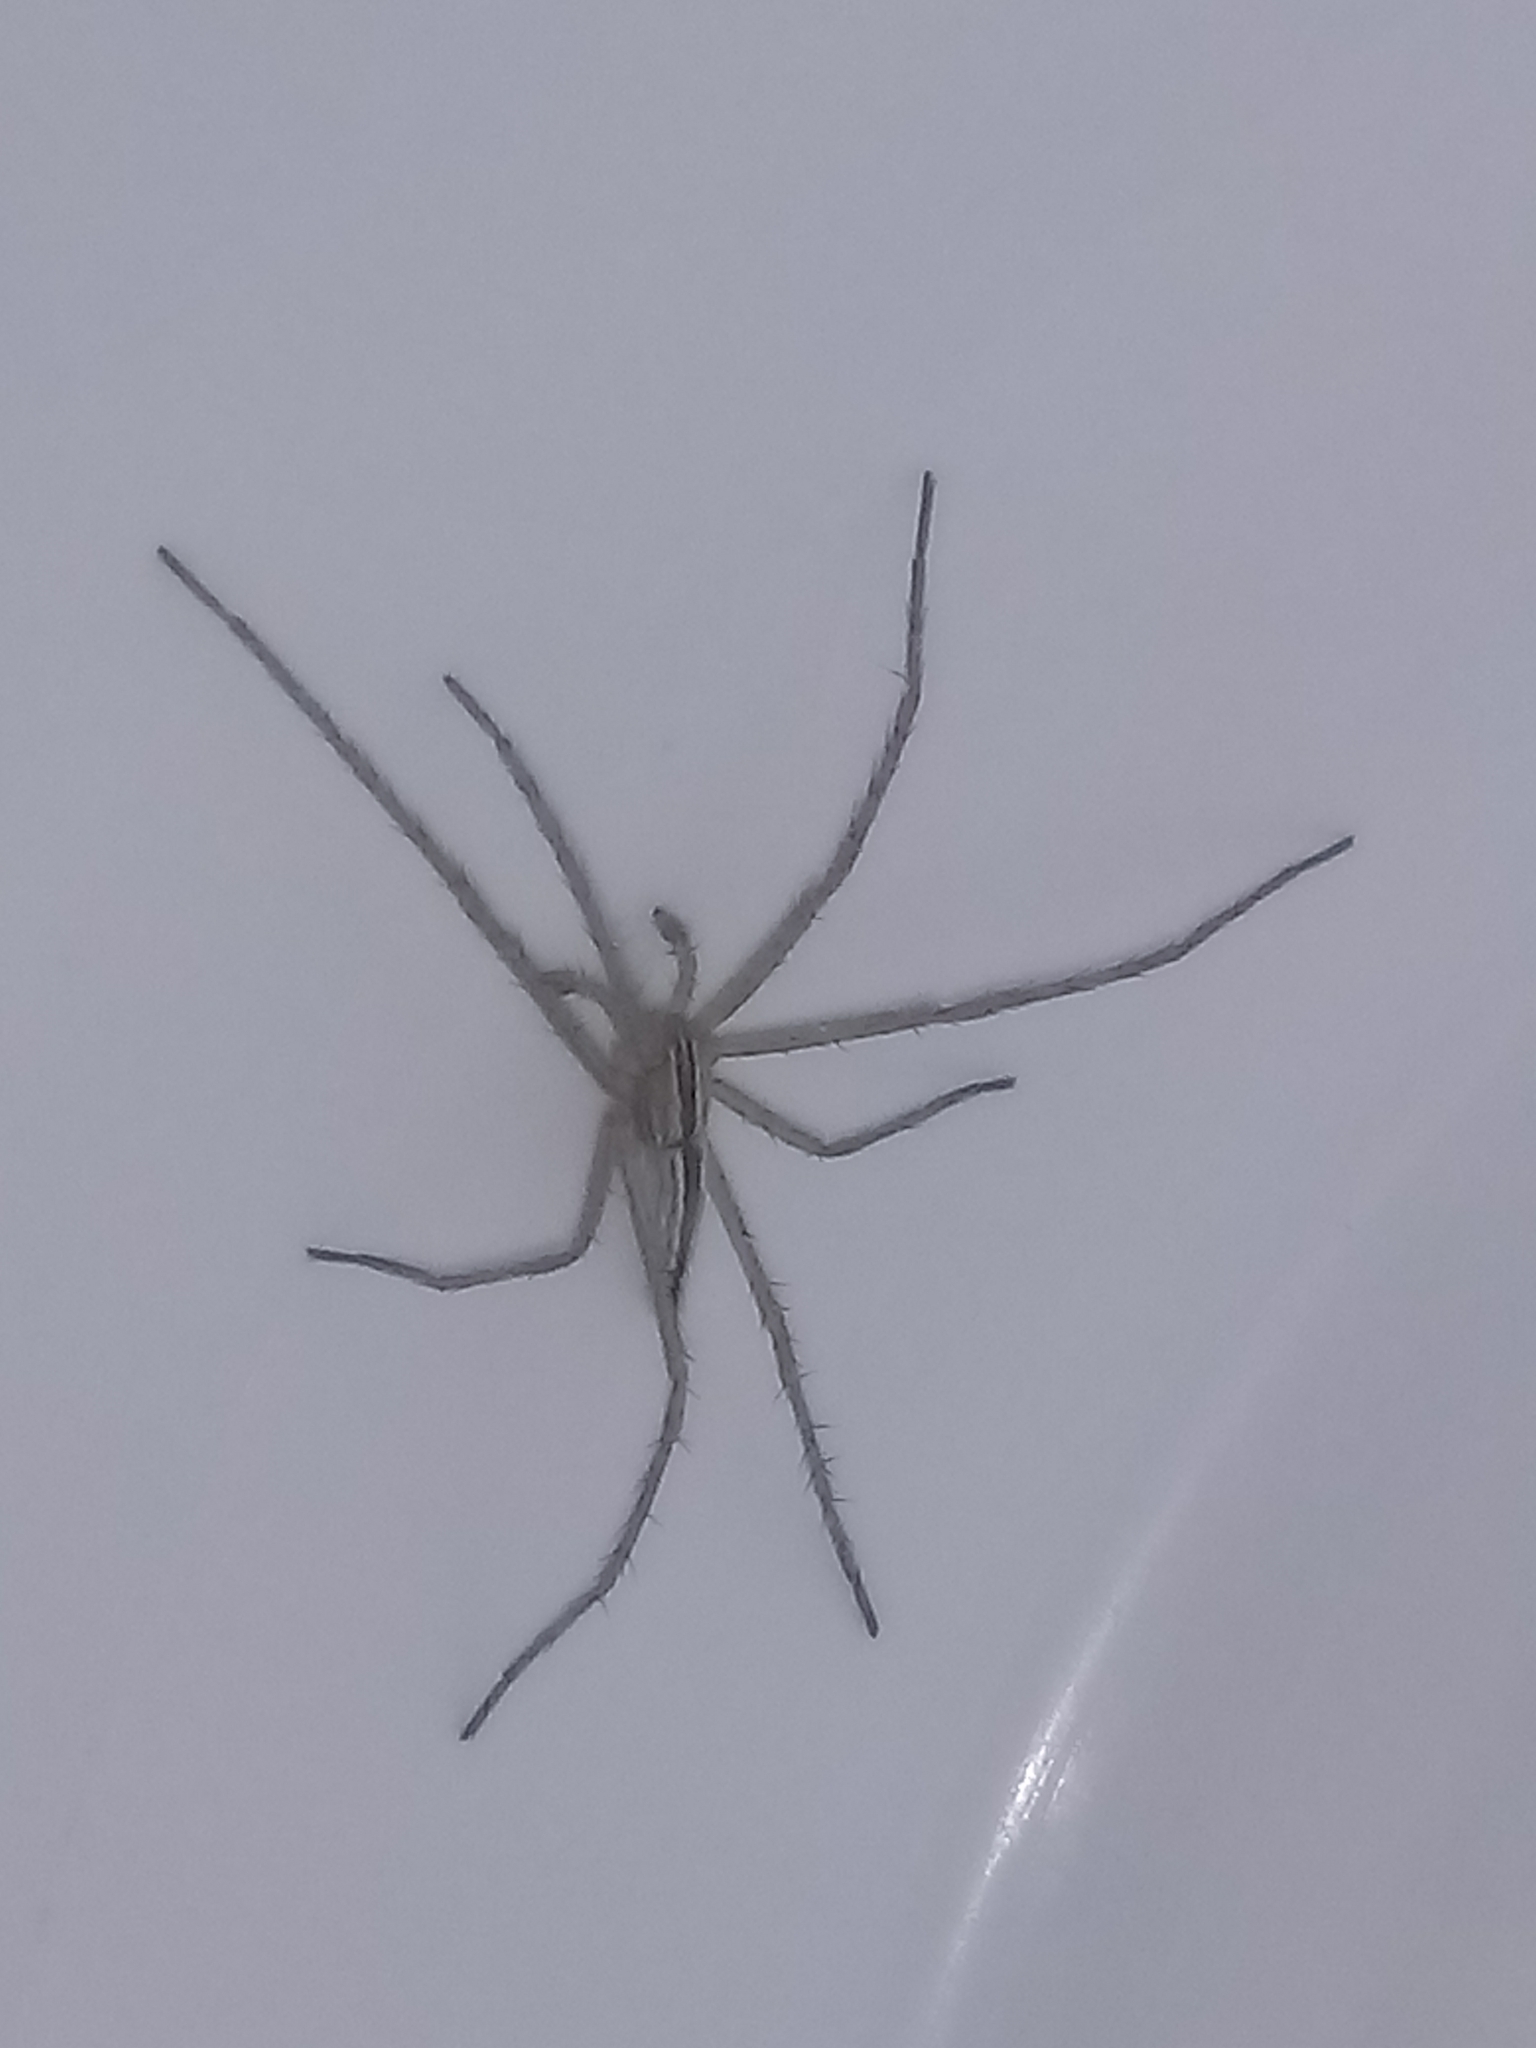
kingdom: Animalia
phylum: Arthropoda
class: Arachnida
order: Araneae
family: Philodromidae
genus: Tibellus
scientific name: Tibellus
